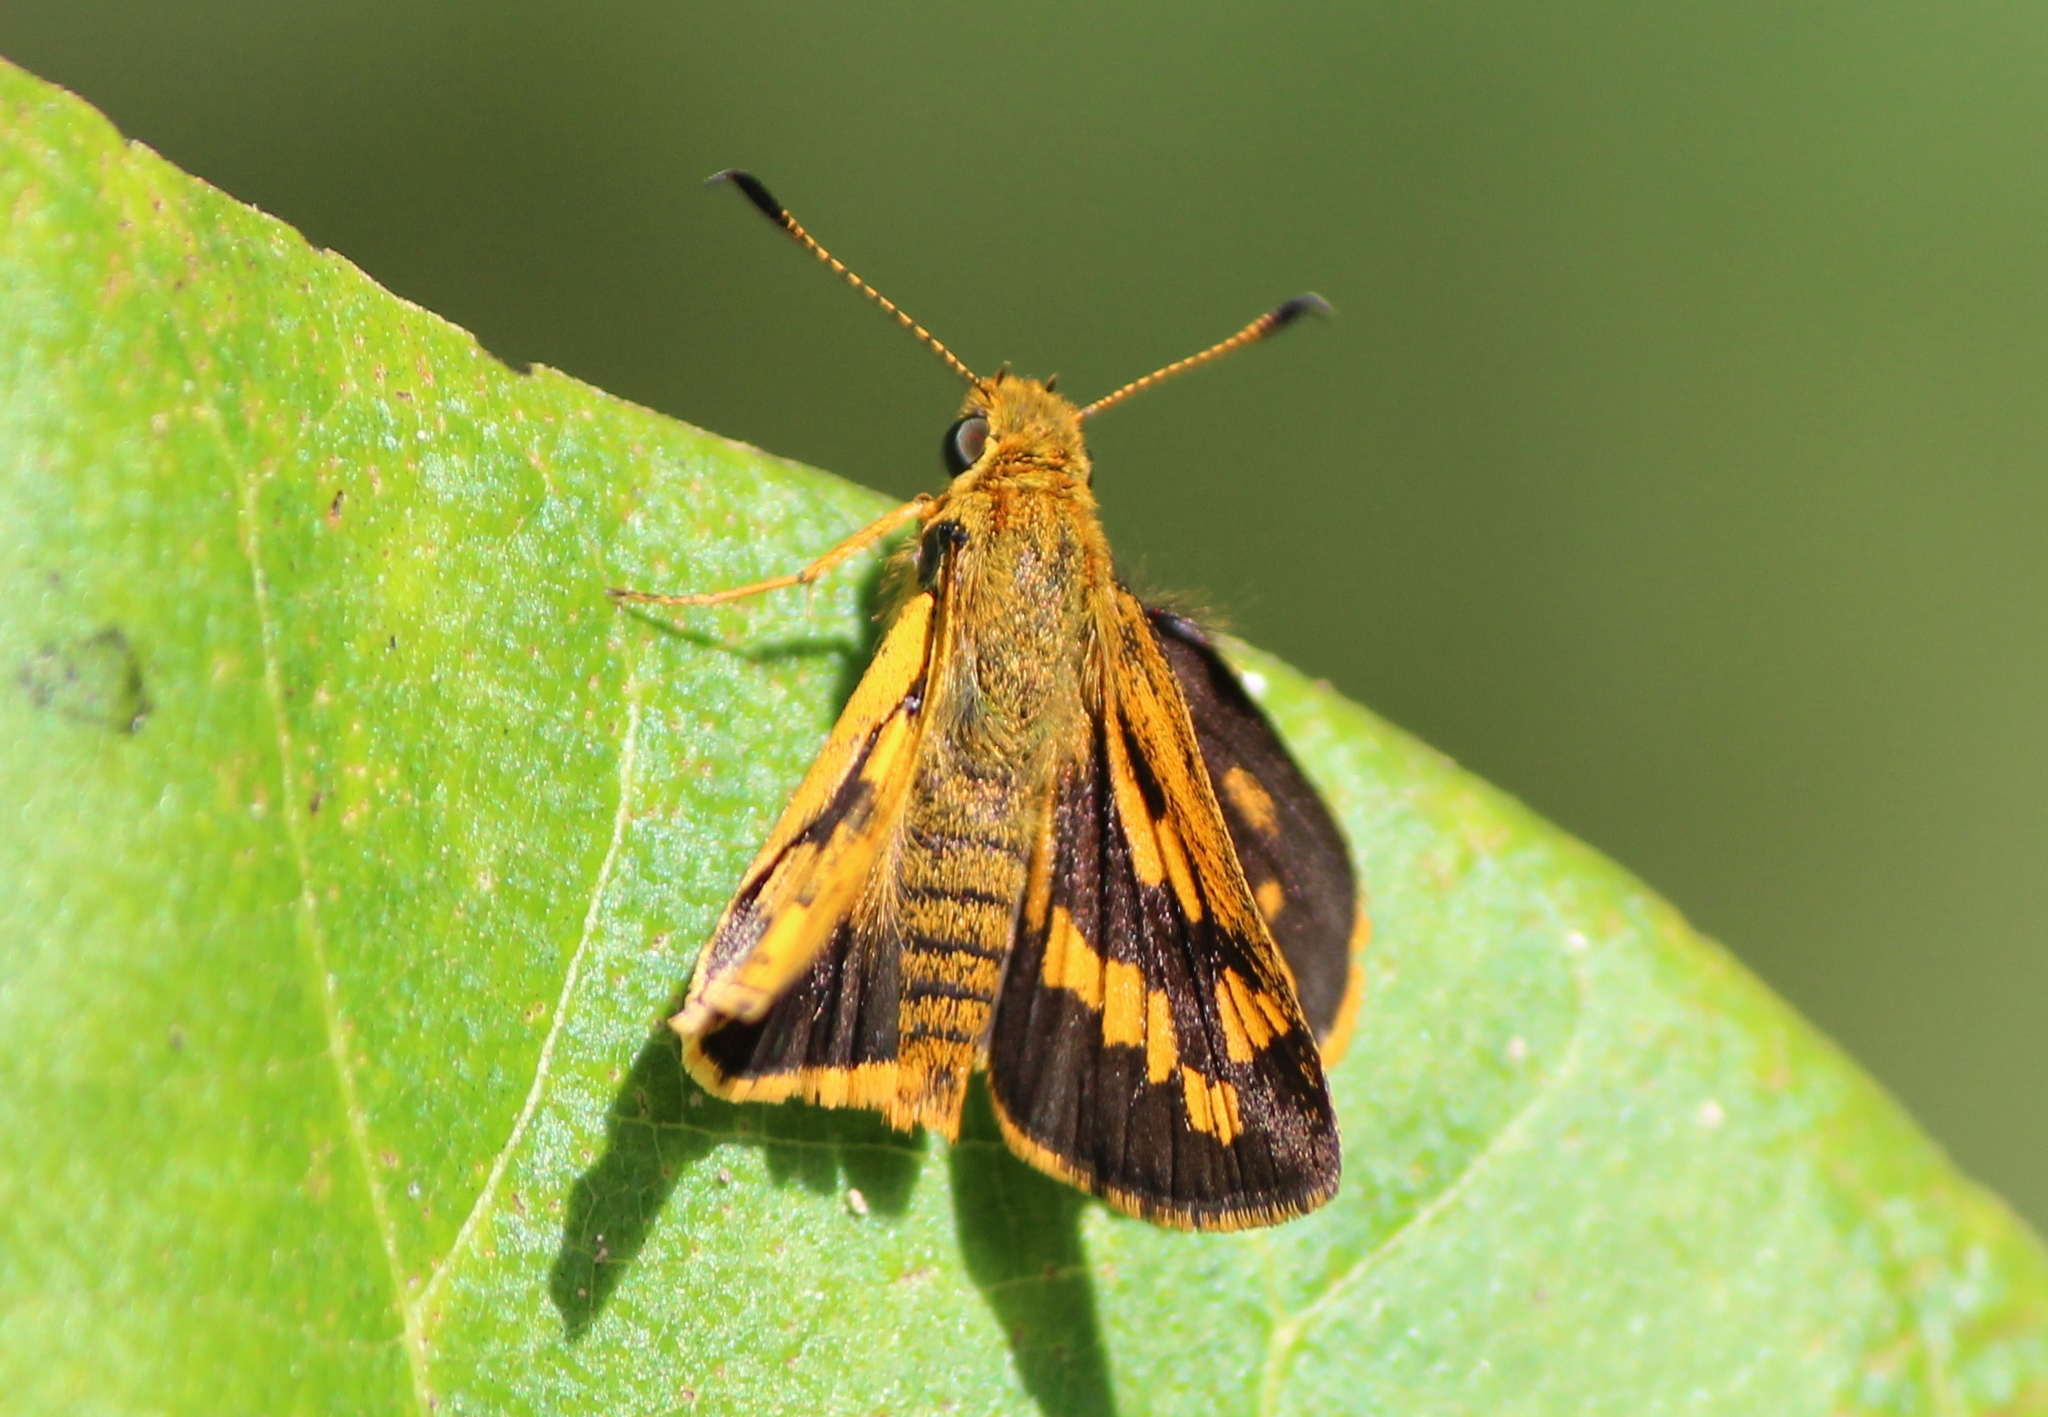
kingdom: Animalia
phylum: Arthropoda
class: Insecta
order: Lepidoptera
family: Hesperiidae
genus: Potanthus
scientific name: Potanthus pseudomaesa
